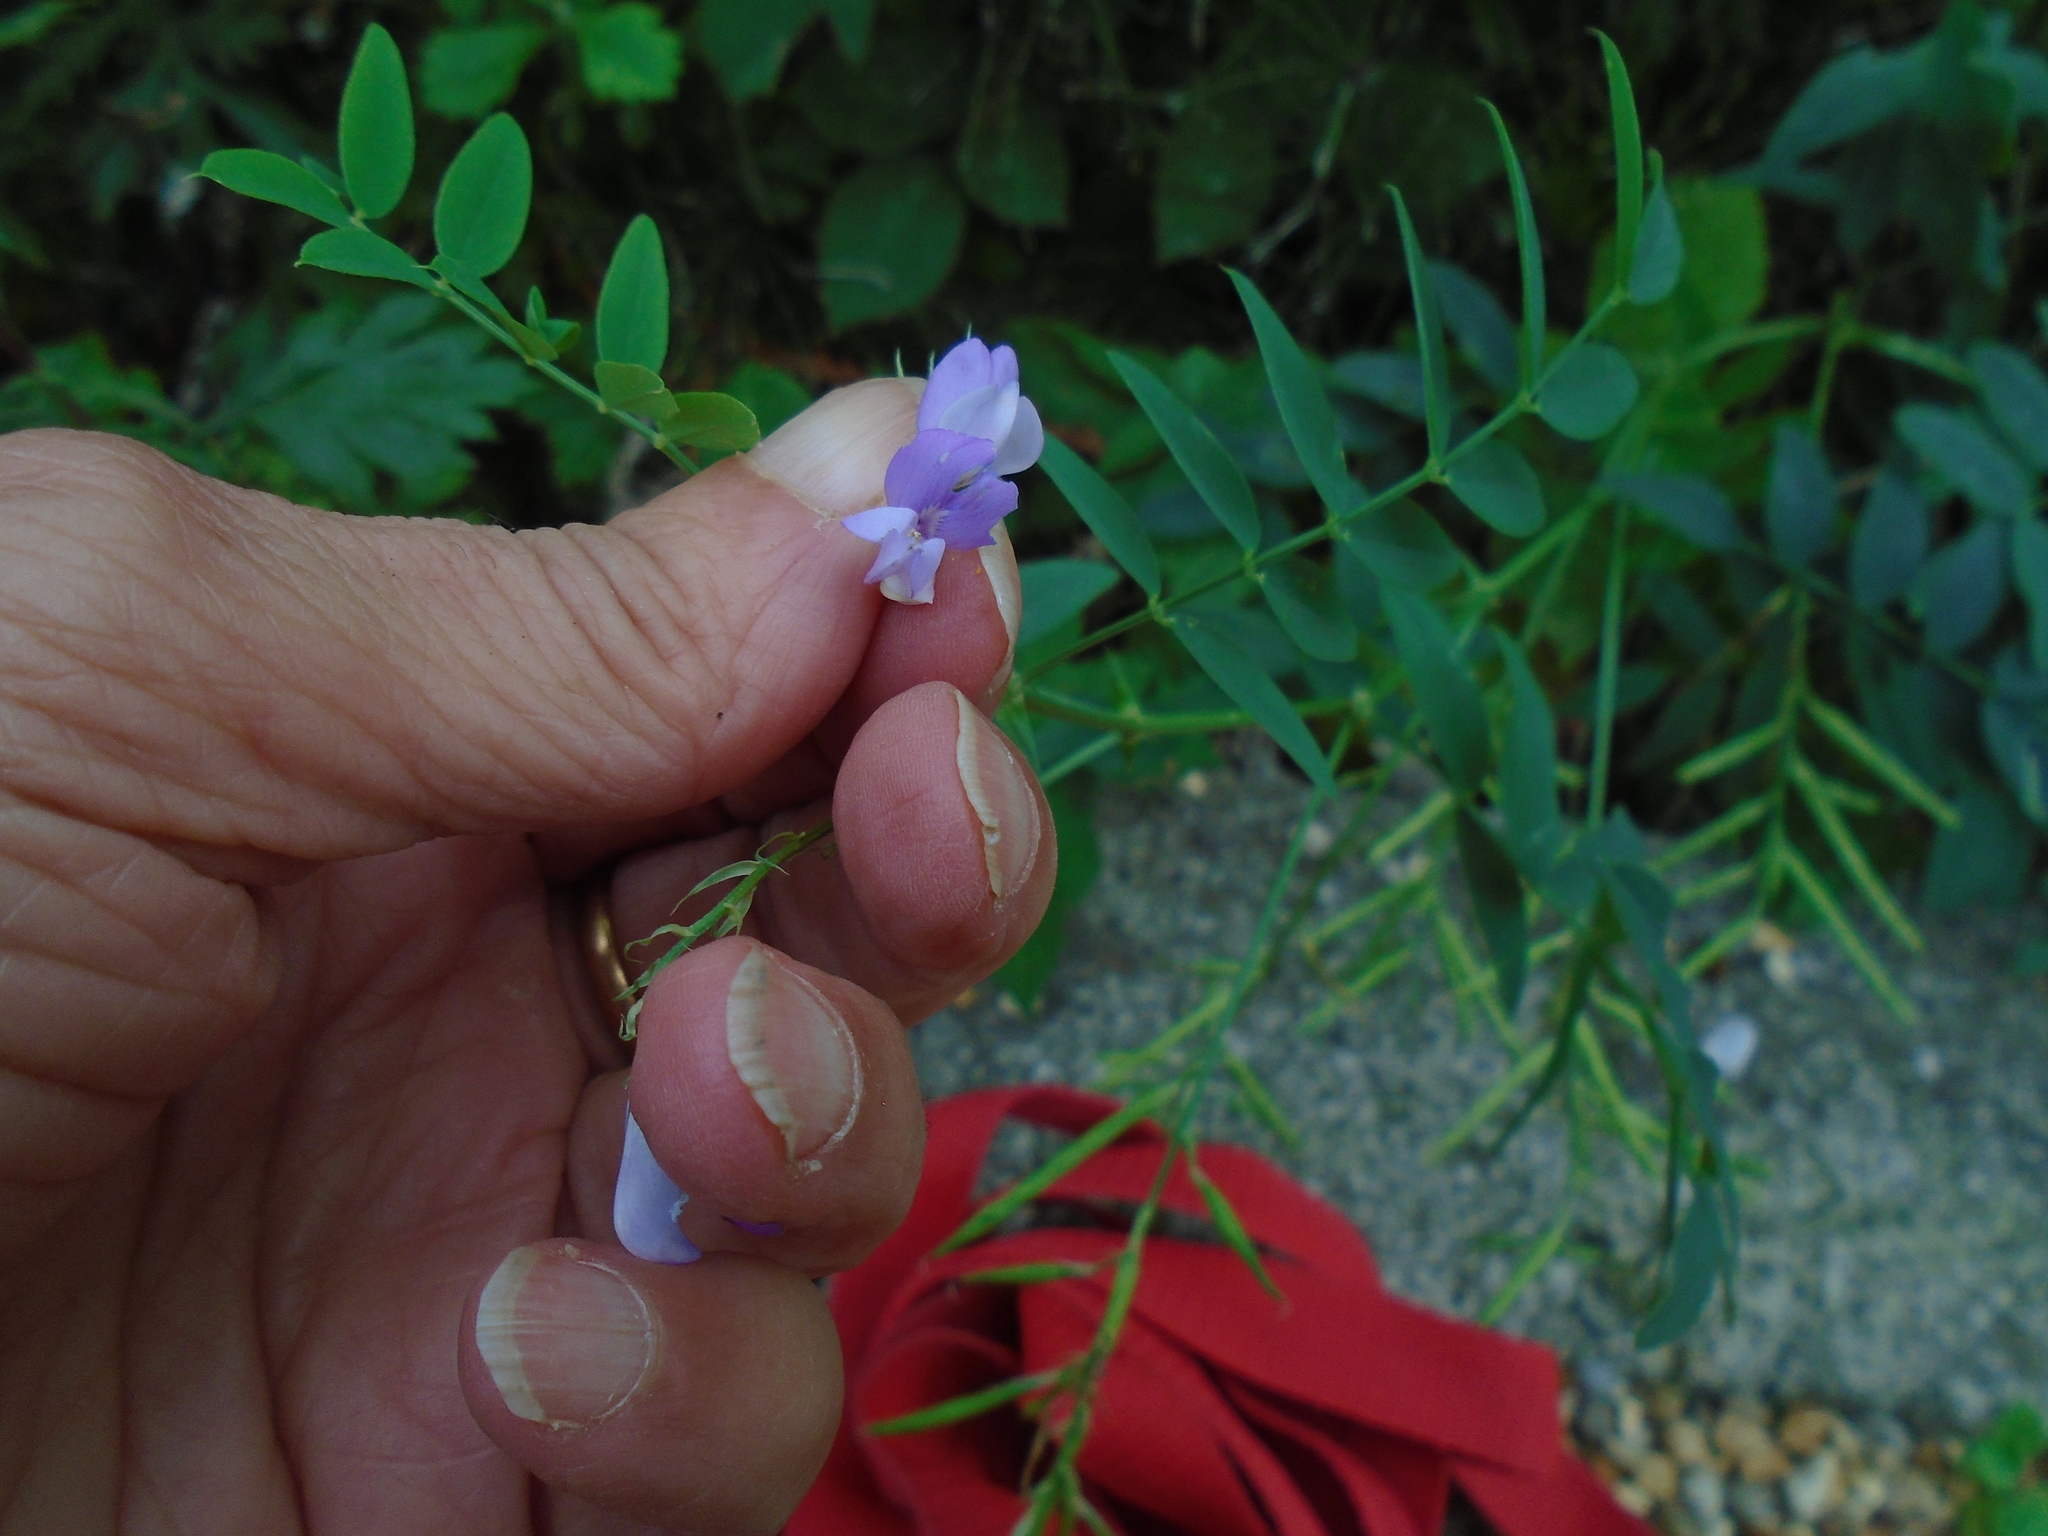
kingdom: Plantae
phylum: Tracheophyta
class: Magnoliopsida
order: Fabales
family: Fabaceae
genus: Galega
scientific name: Galega officinalis
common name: Goat's-rue
